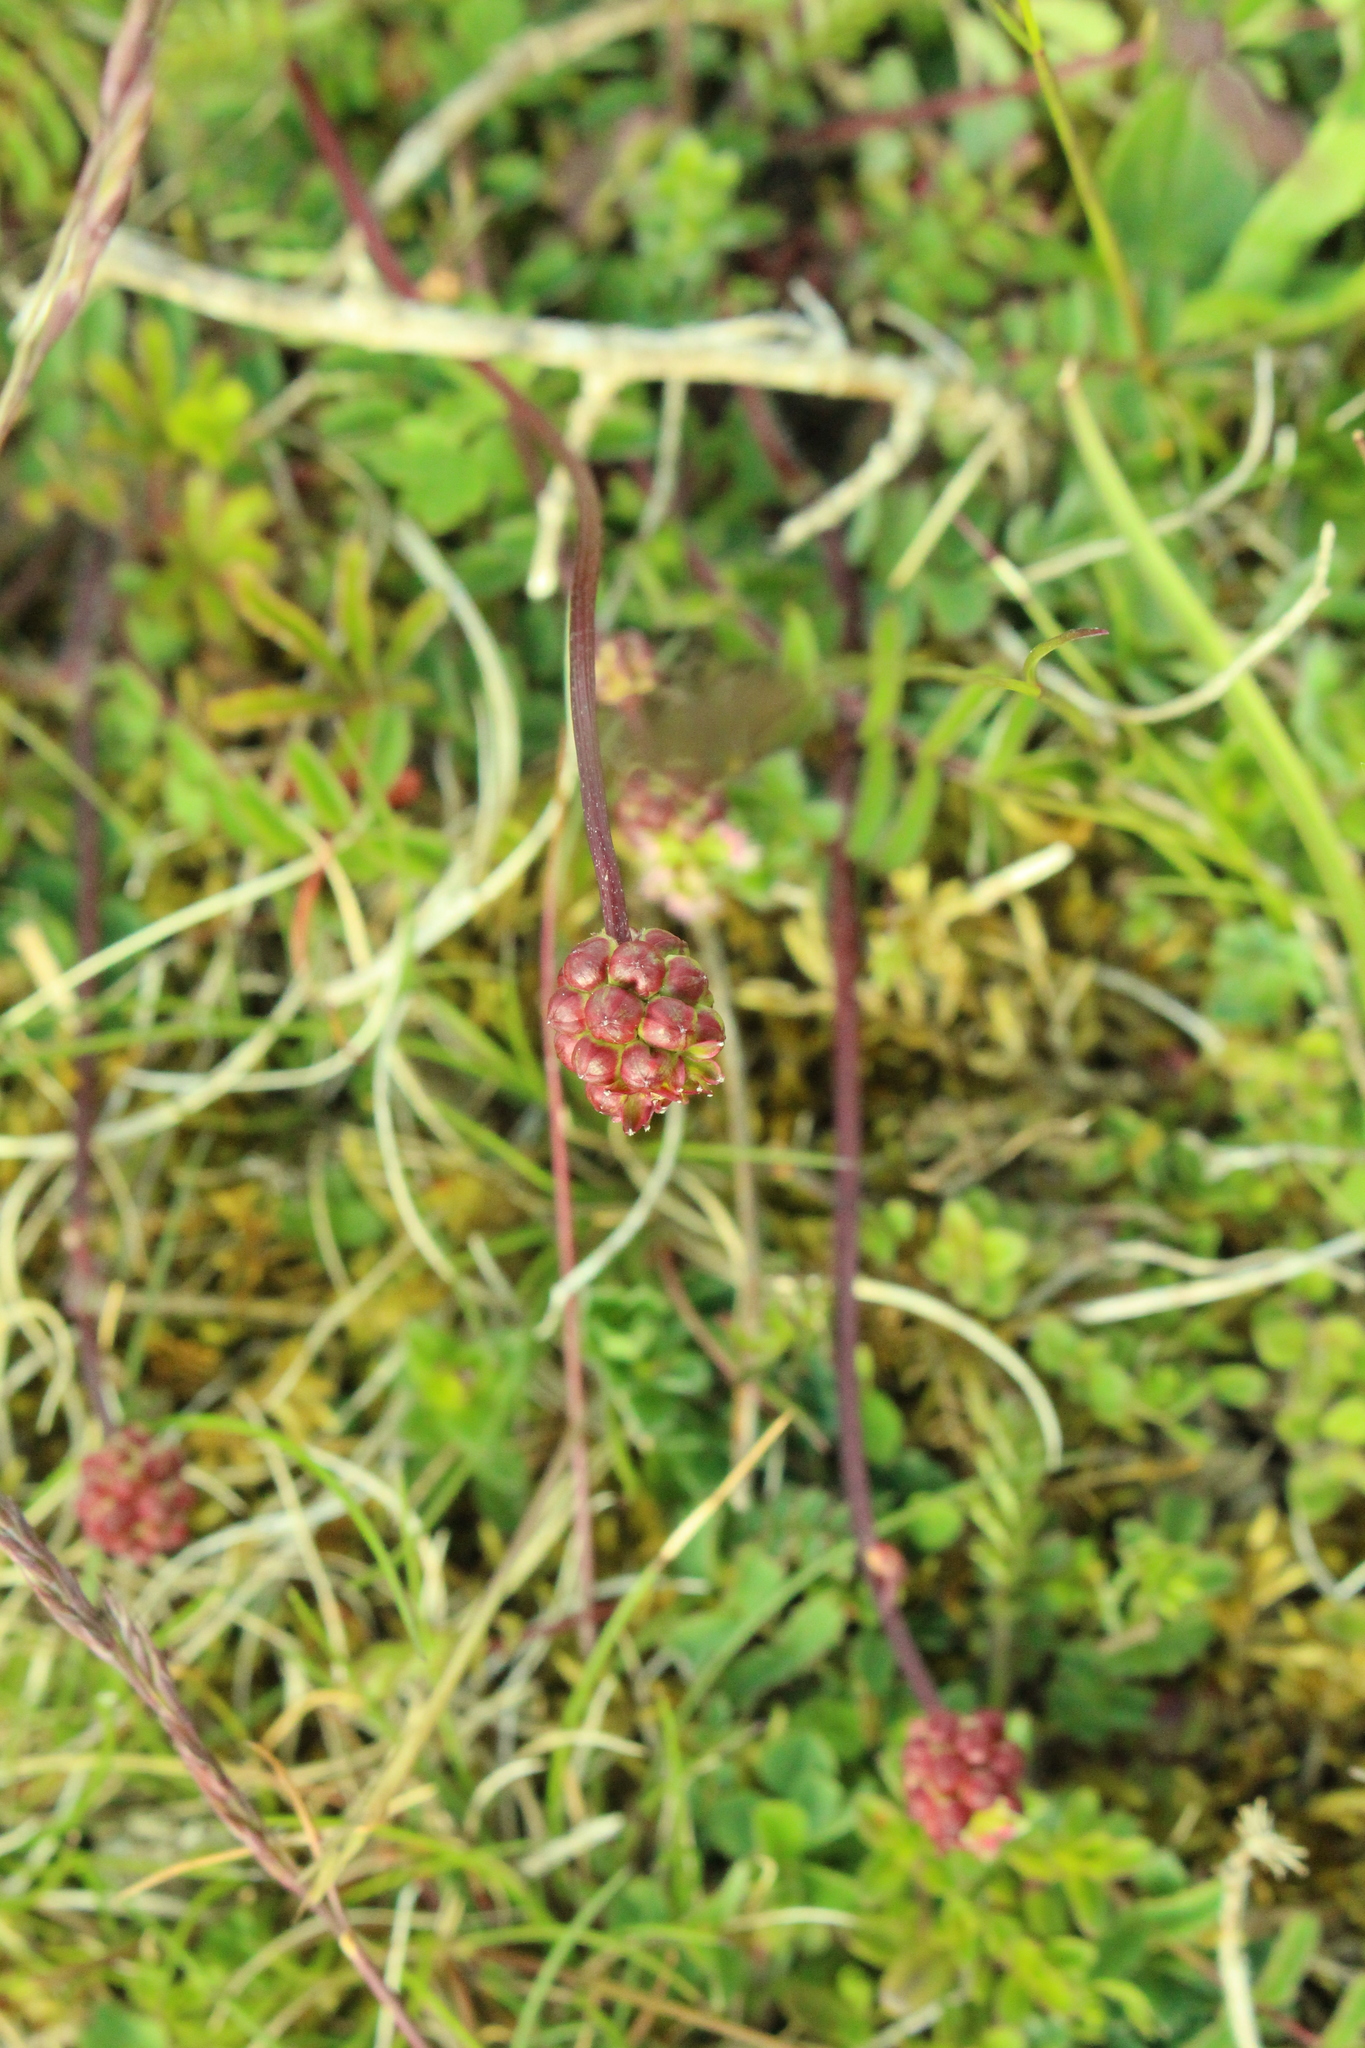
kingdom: Plantae
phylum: Tracheophyta
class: Magnoliopsida
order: Rosales
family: Rosaceae
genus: Poterium
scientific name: Poterium sanguisorba
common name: Salad burnet
